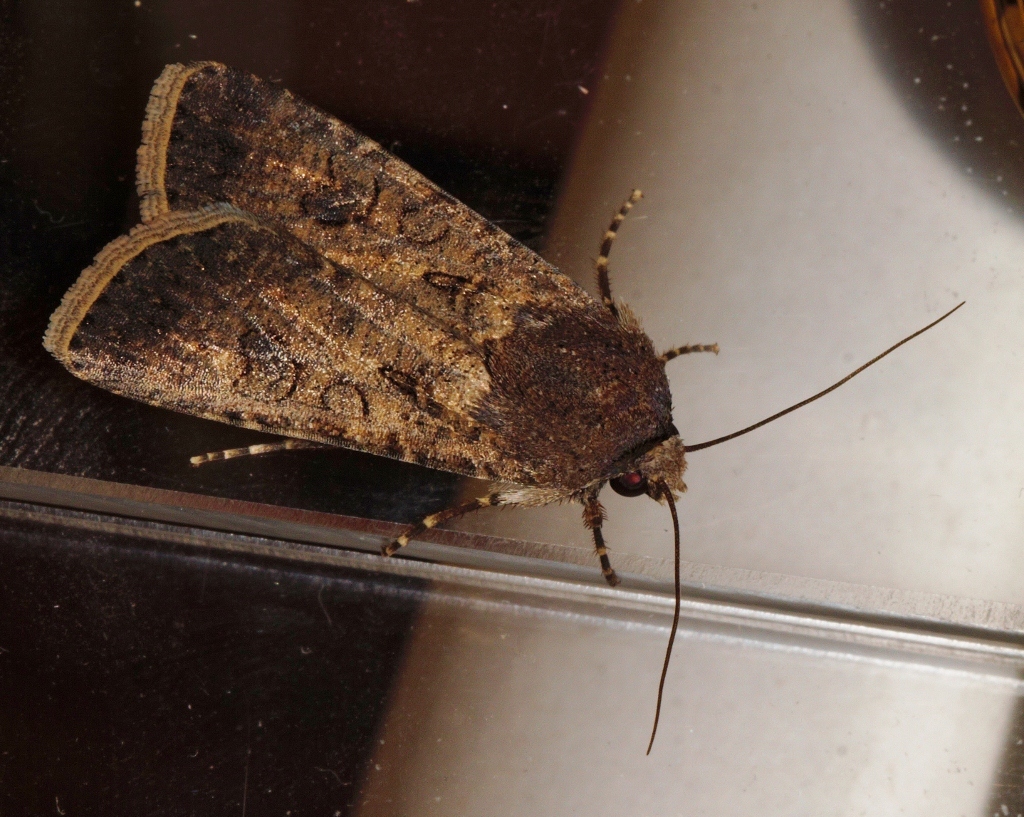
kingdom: Animalia
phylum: Arthropoda
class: Insecta
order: Lepidoptera
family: Noctuidae
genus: Agrotis
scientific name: Agrotis segetum
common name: Turnip moth
